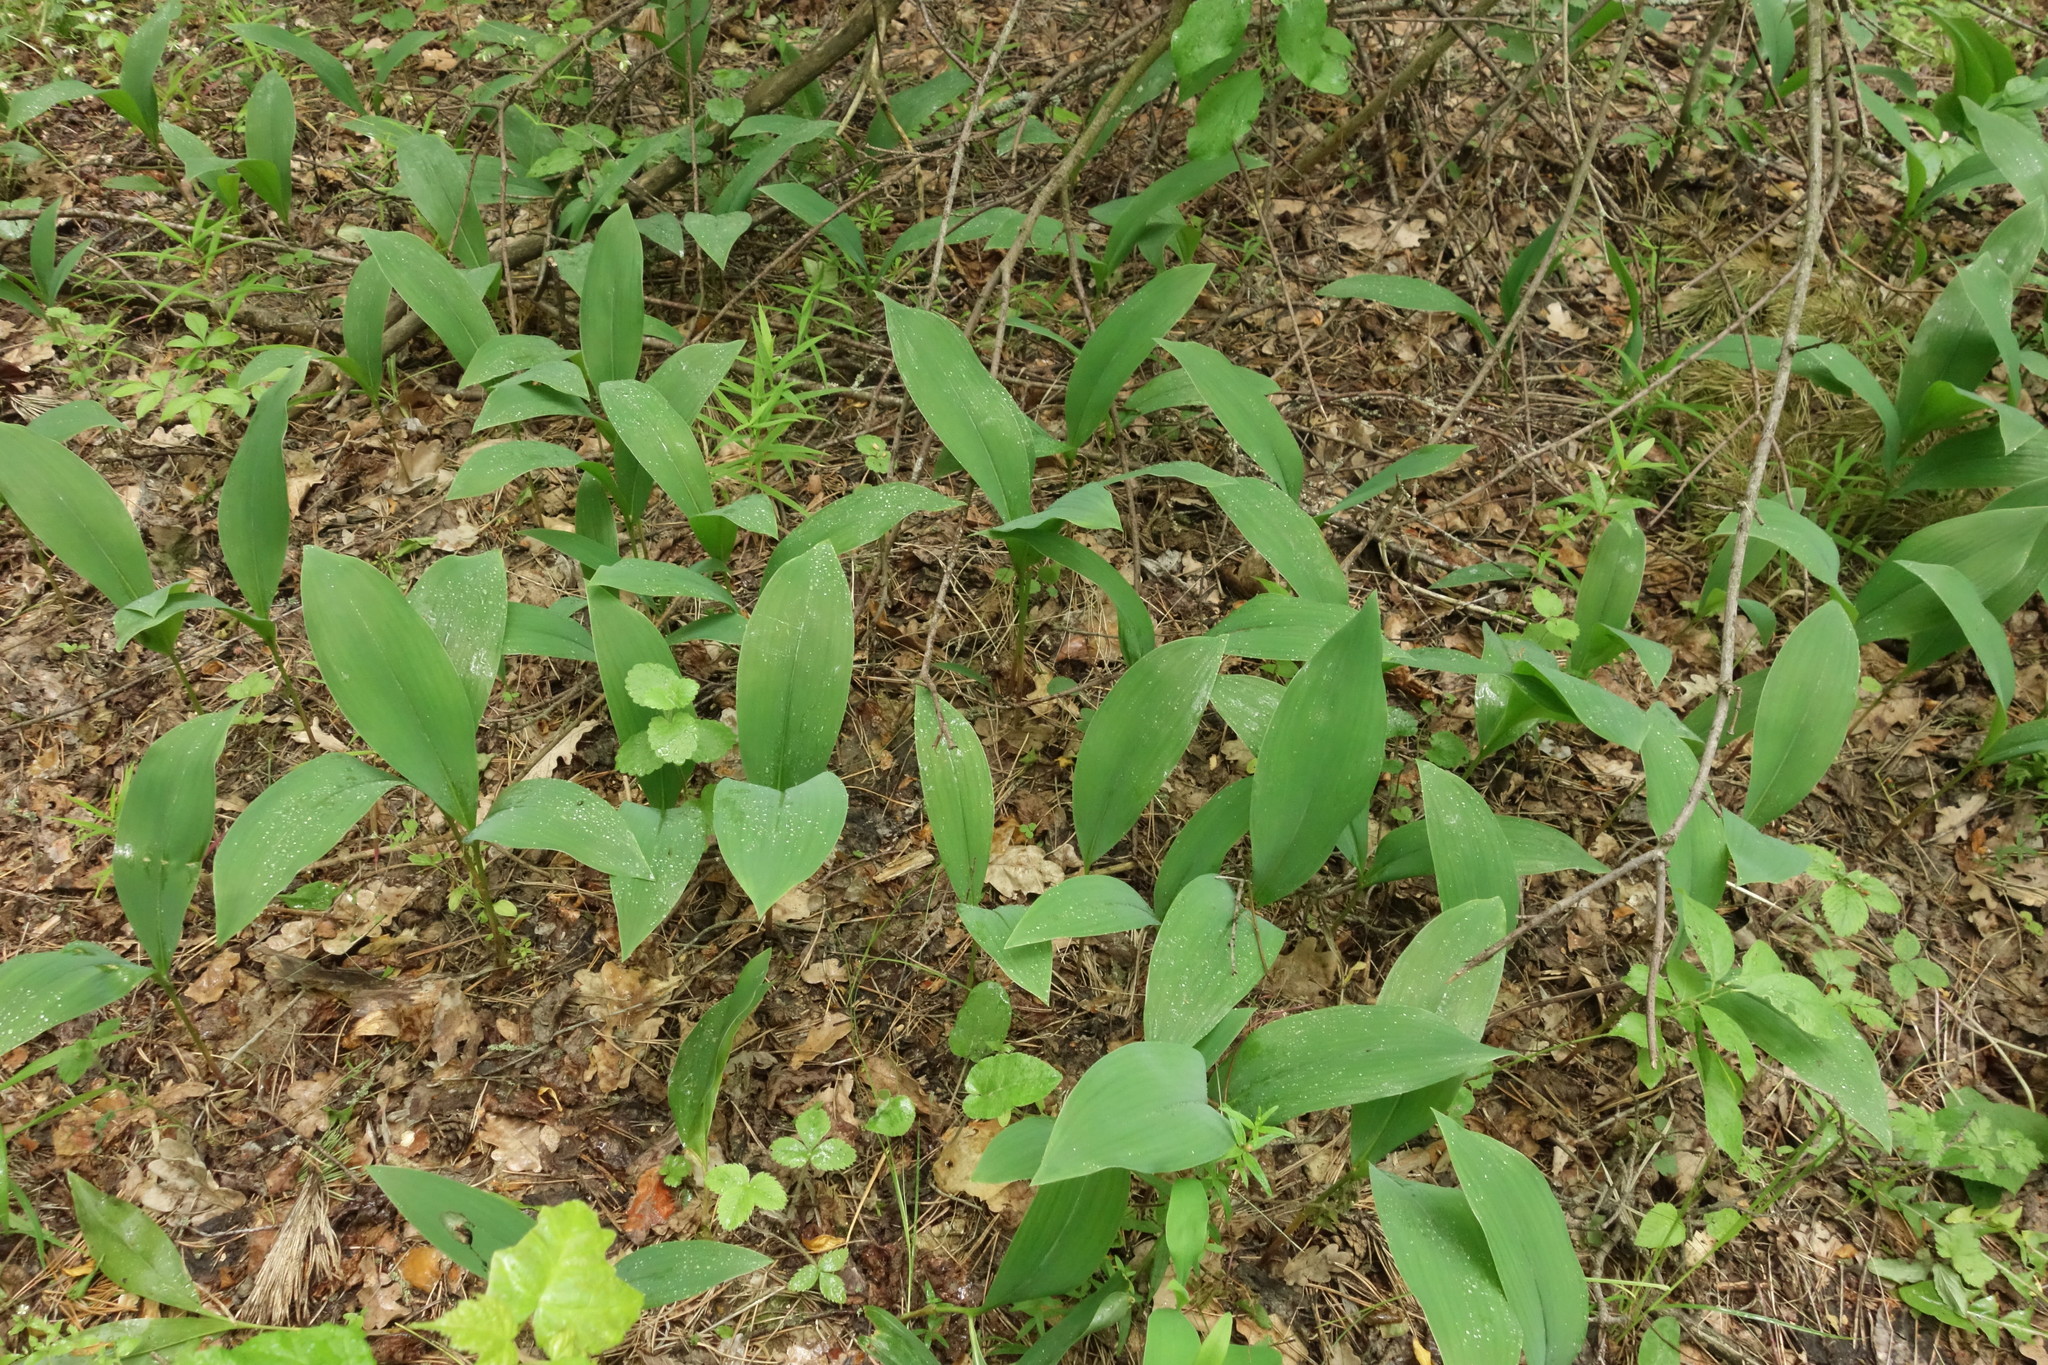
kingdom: Plantae
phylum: Tracheophyta
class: Liliopsida
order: Asparagales
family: Asparagaceae
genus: Convallaria
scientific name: Convallaria majalis
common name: Lily-of-the-valley
